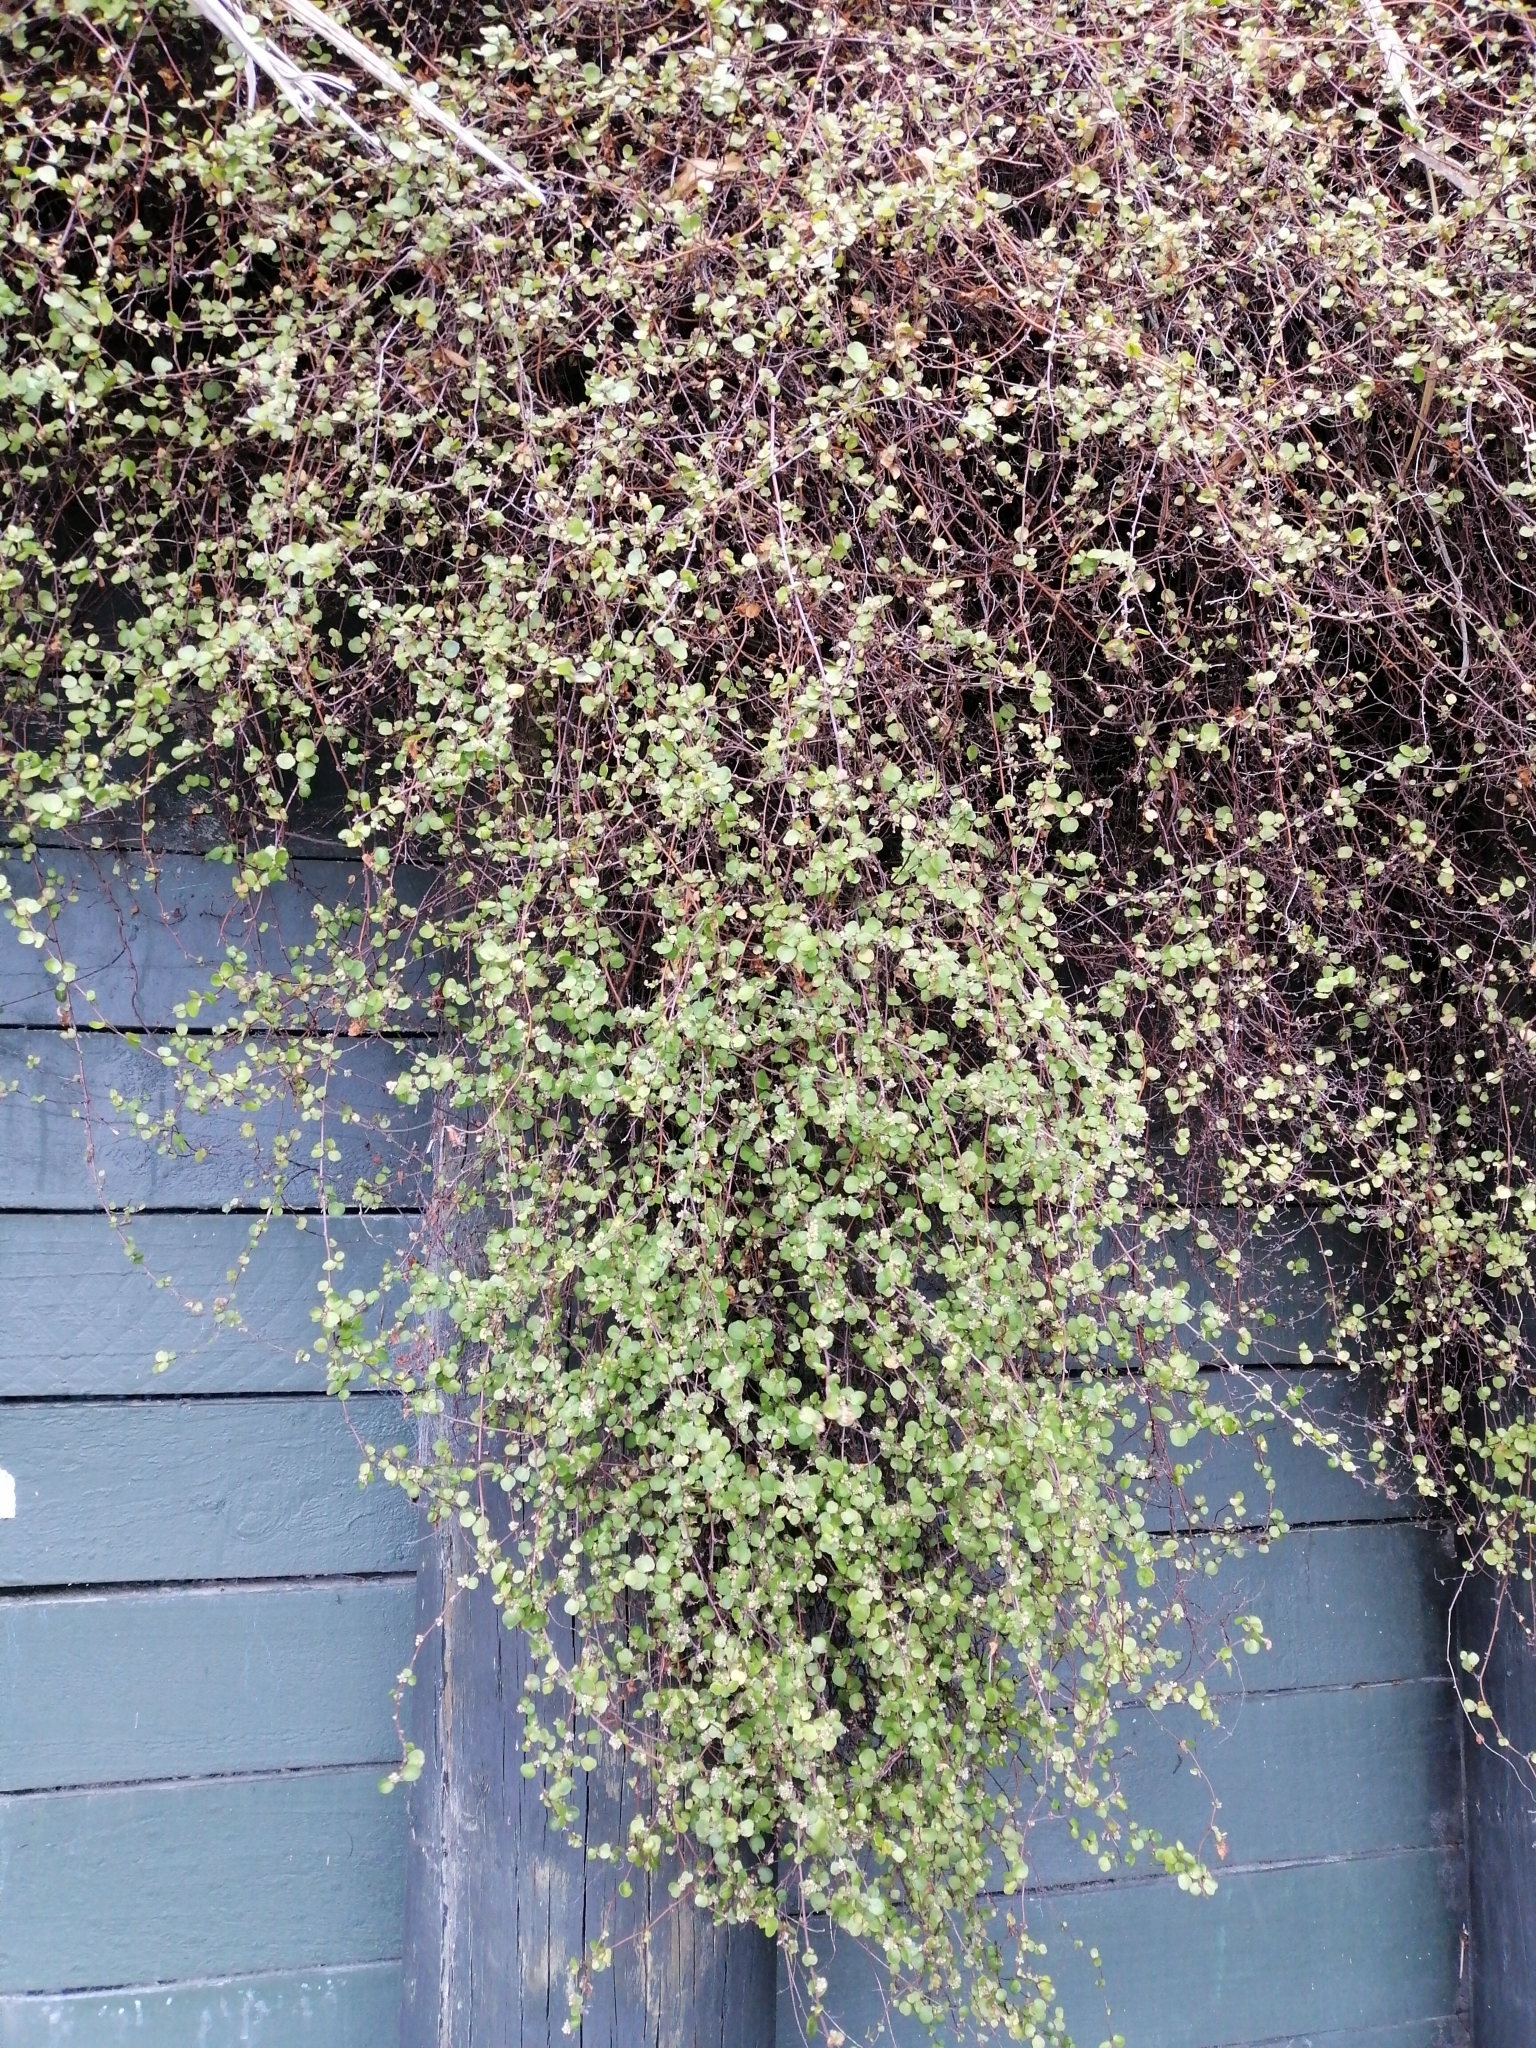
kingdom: Plantae
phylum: Tracheophyta
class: Magnoliopsida
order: Caryophyllales
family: Polygonaceae
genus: Muehlenbeckia
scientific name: Muehlenbeckia complexa
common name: Wireplant
